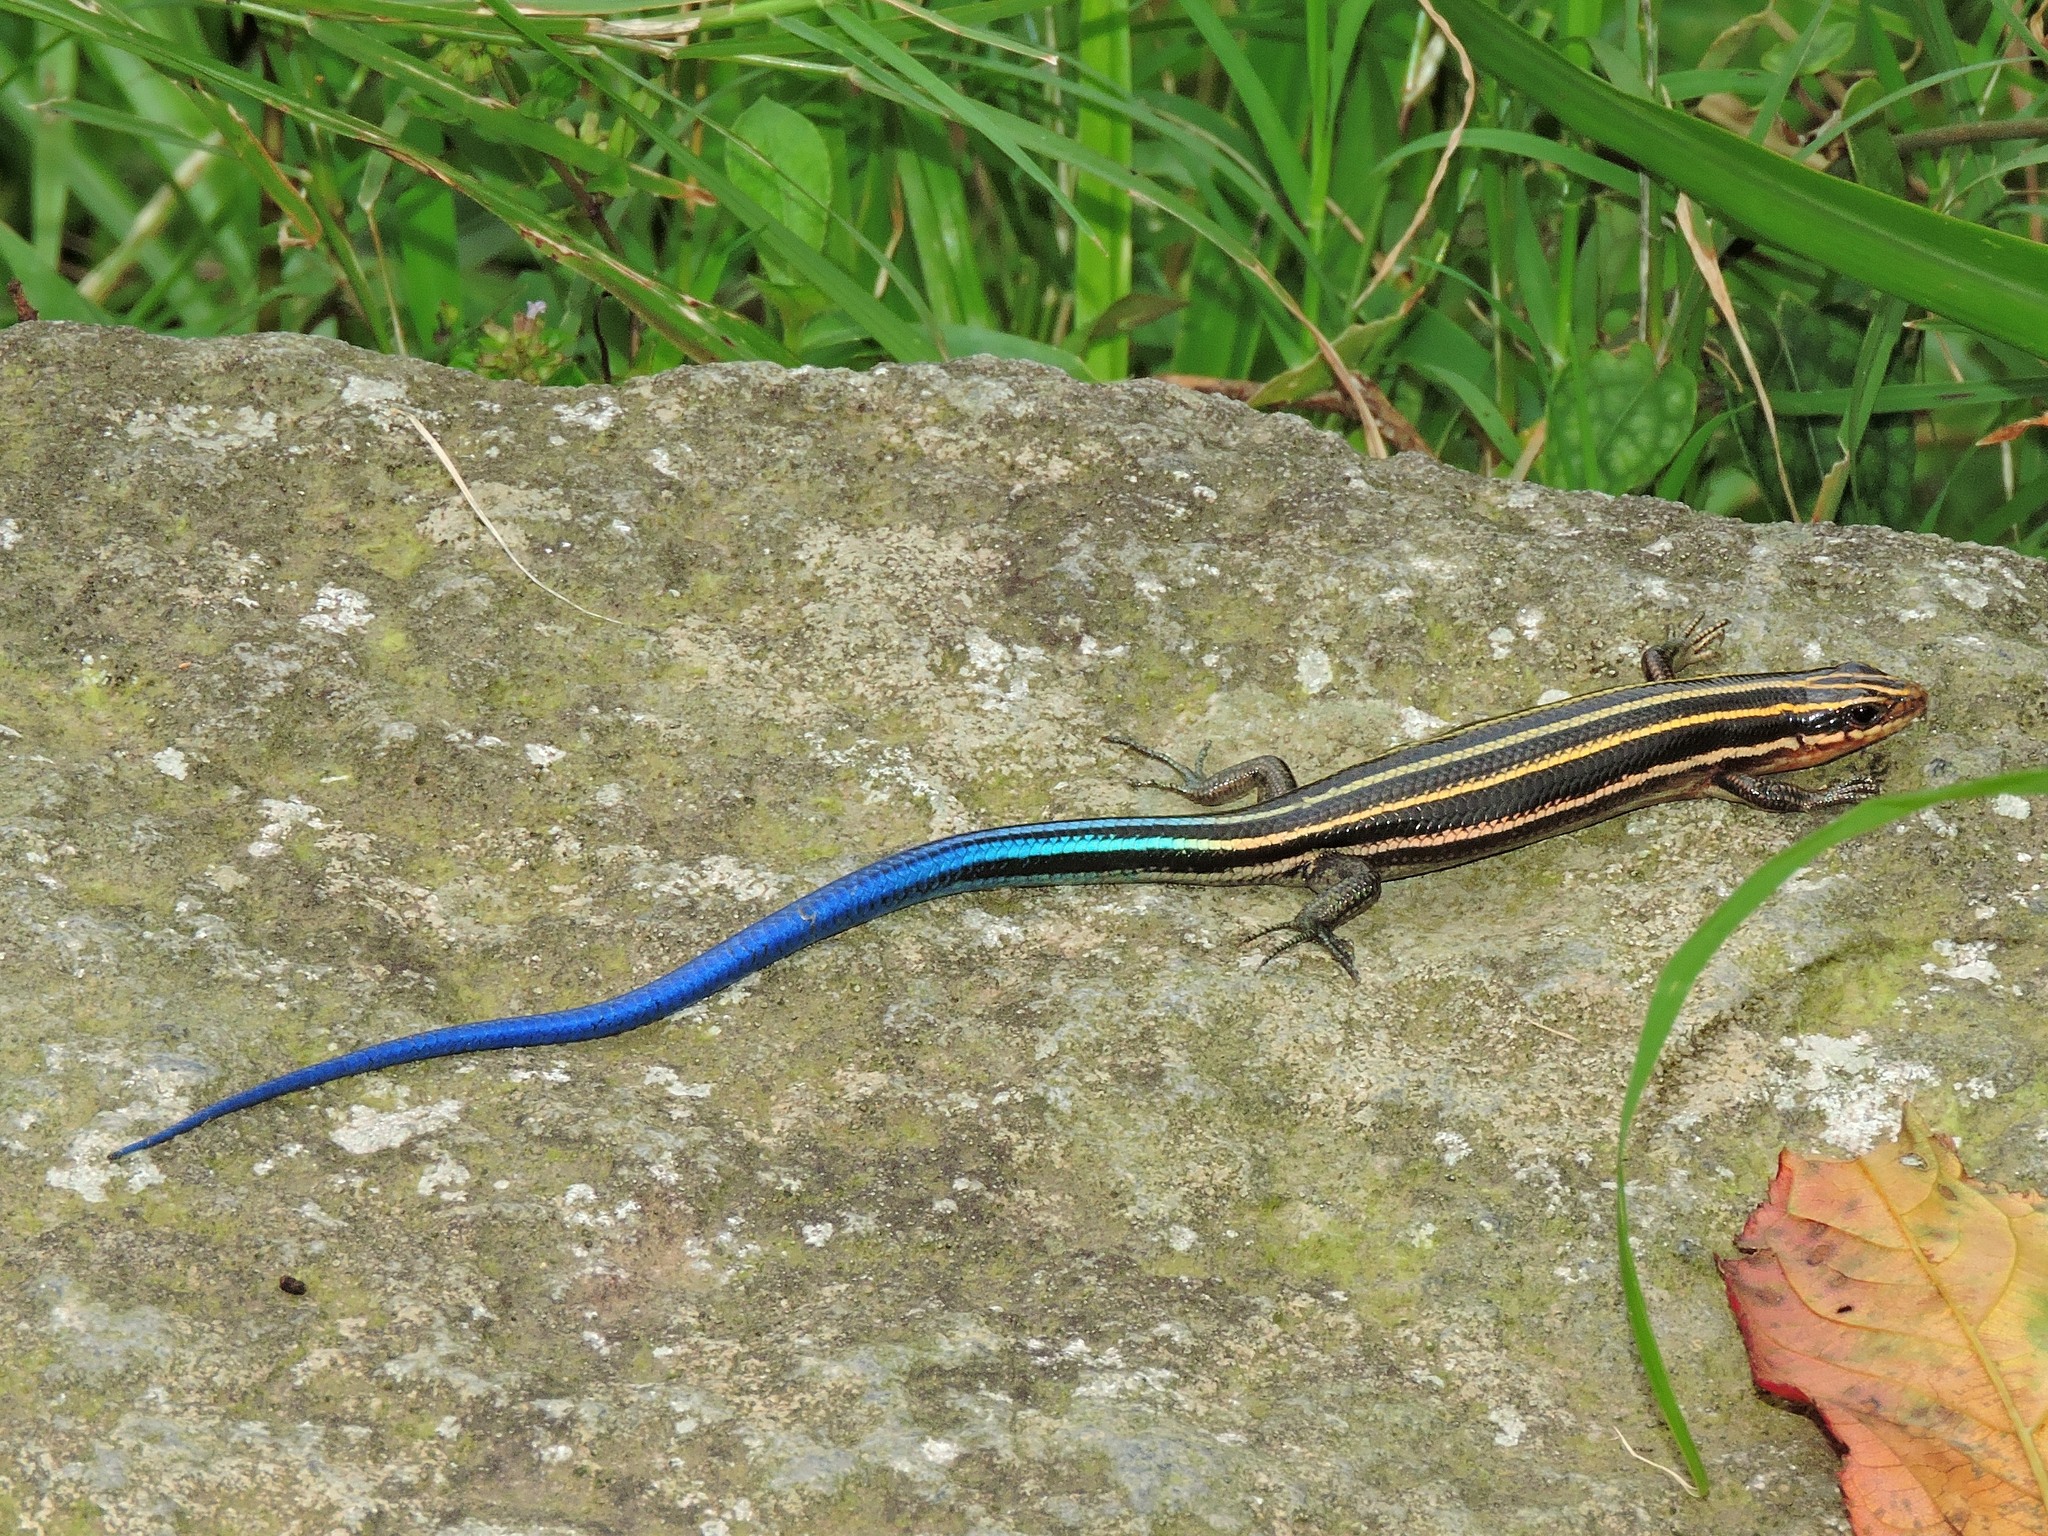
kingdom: Animalia
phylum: Chordata
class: Squamata
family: Scincidae
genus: Plestiodon
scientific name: Plestiodon elegans
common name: Shanghai elegant skink
